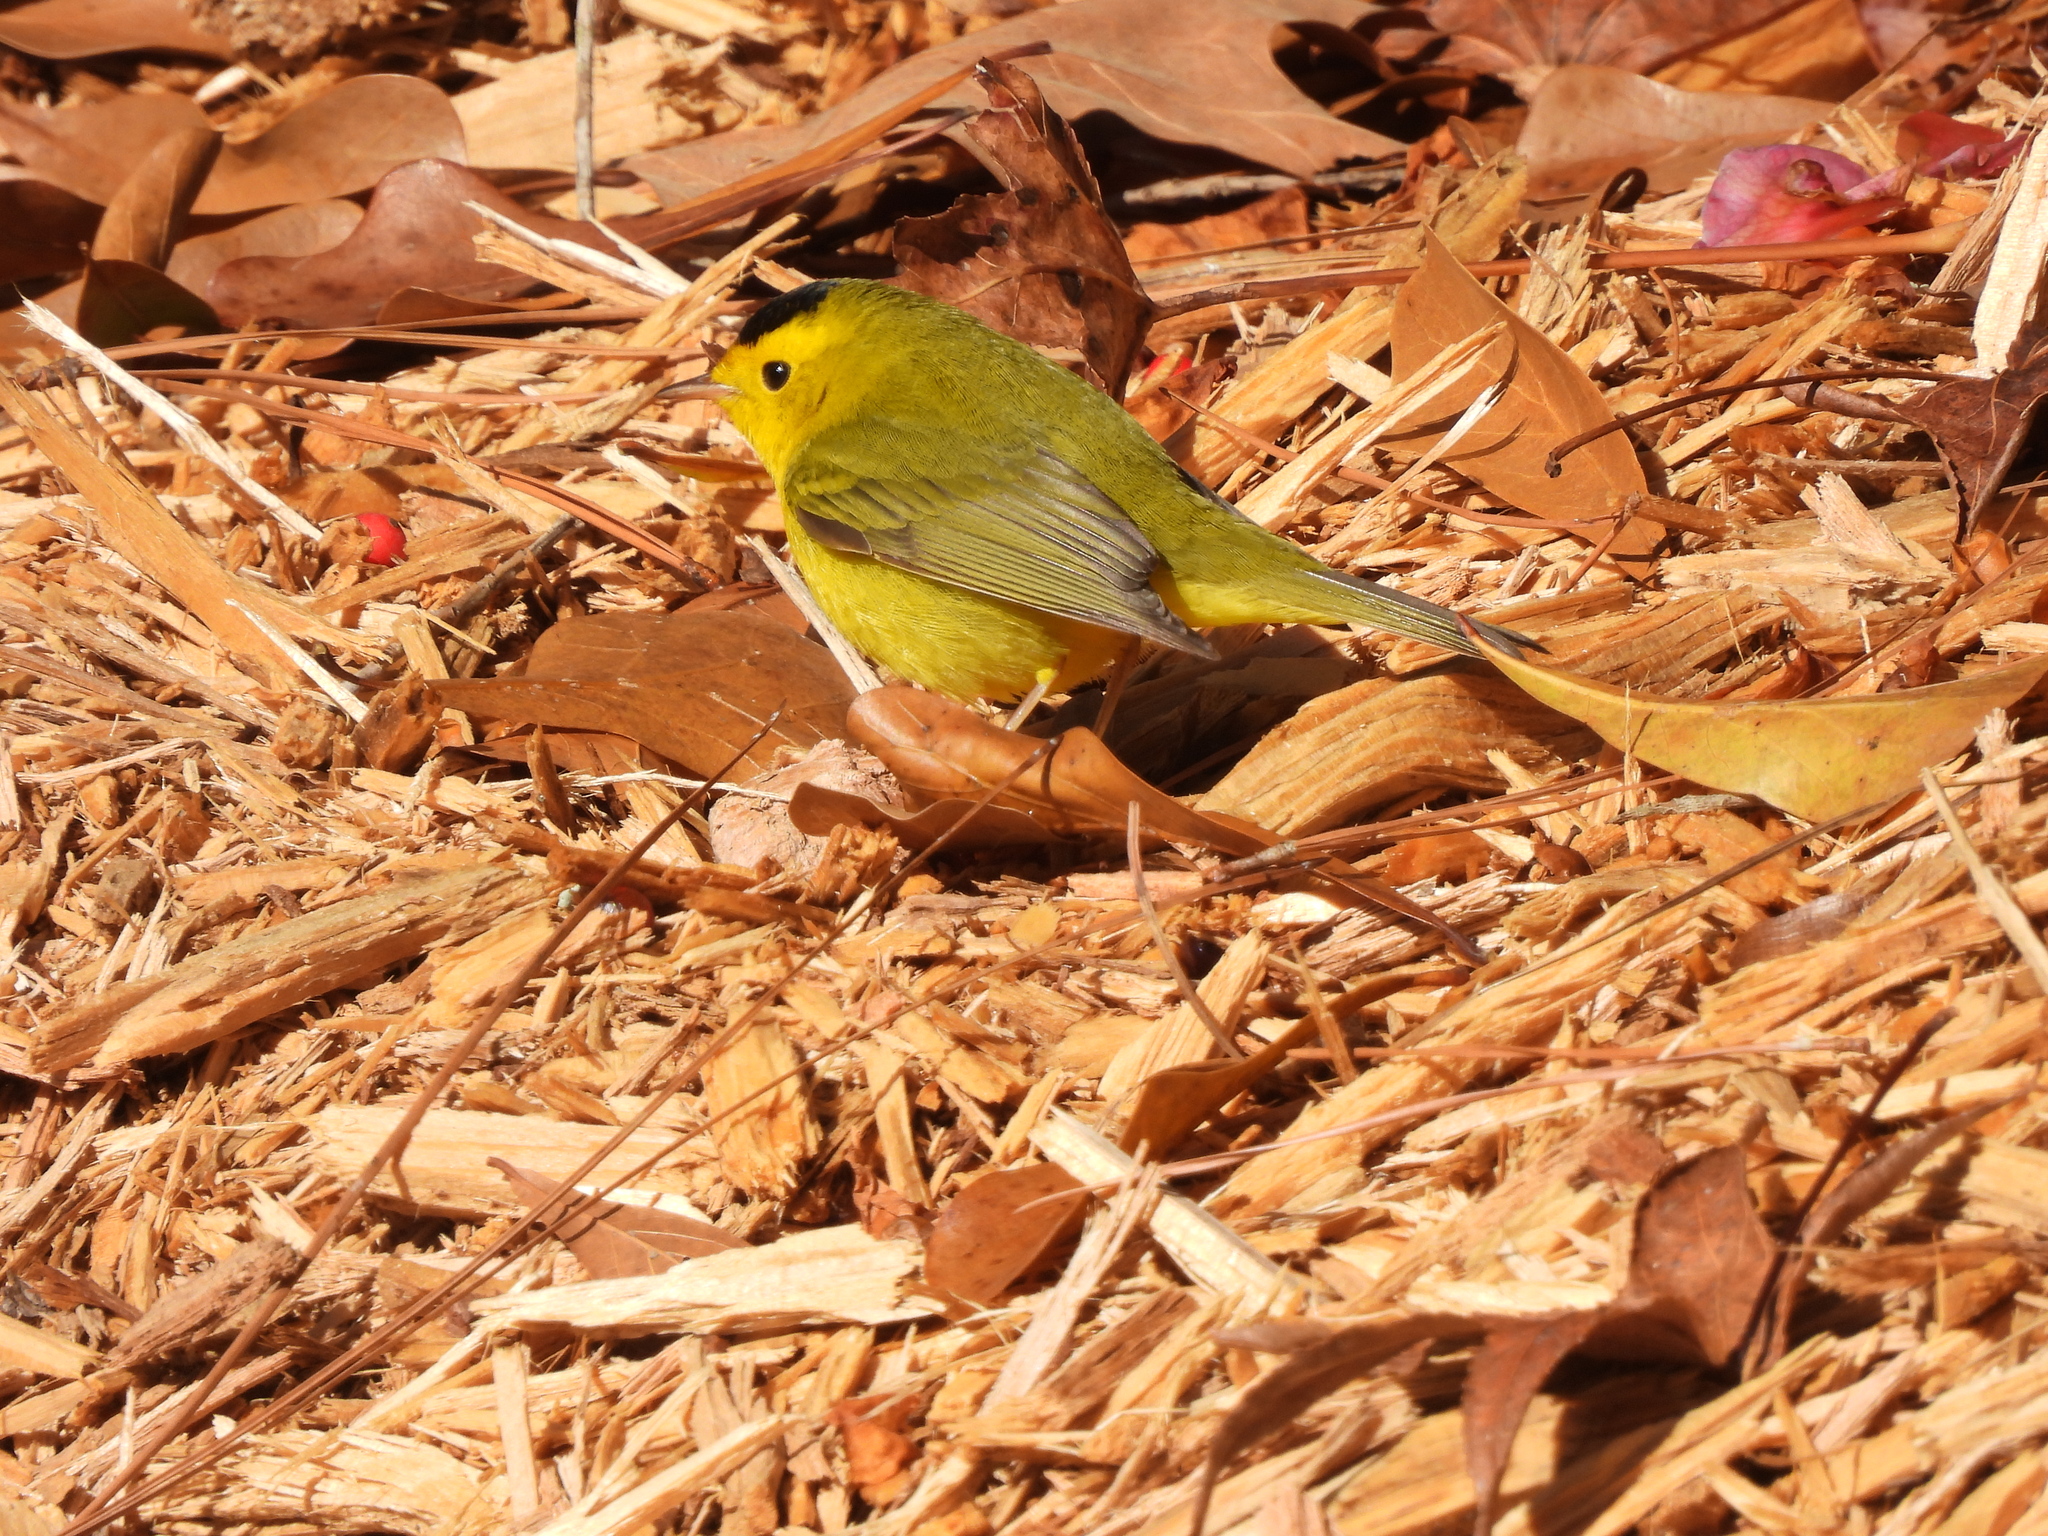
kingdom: Animalia
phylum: Chordata
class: Aves
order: Passeriformes
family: Parulidae
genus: Cardellina
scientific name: Cardellina pusilla
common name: Wilson's warbler
